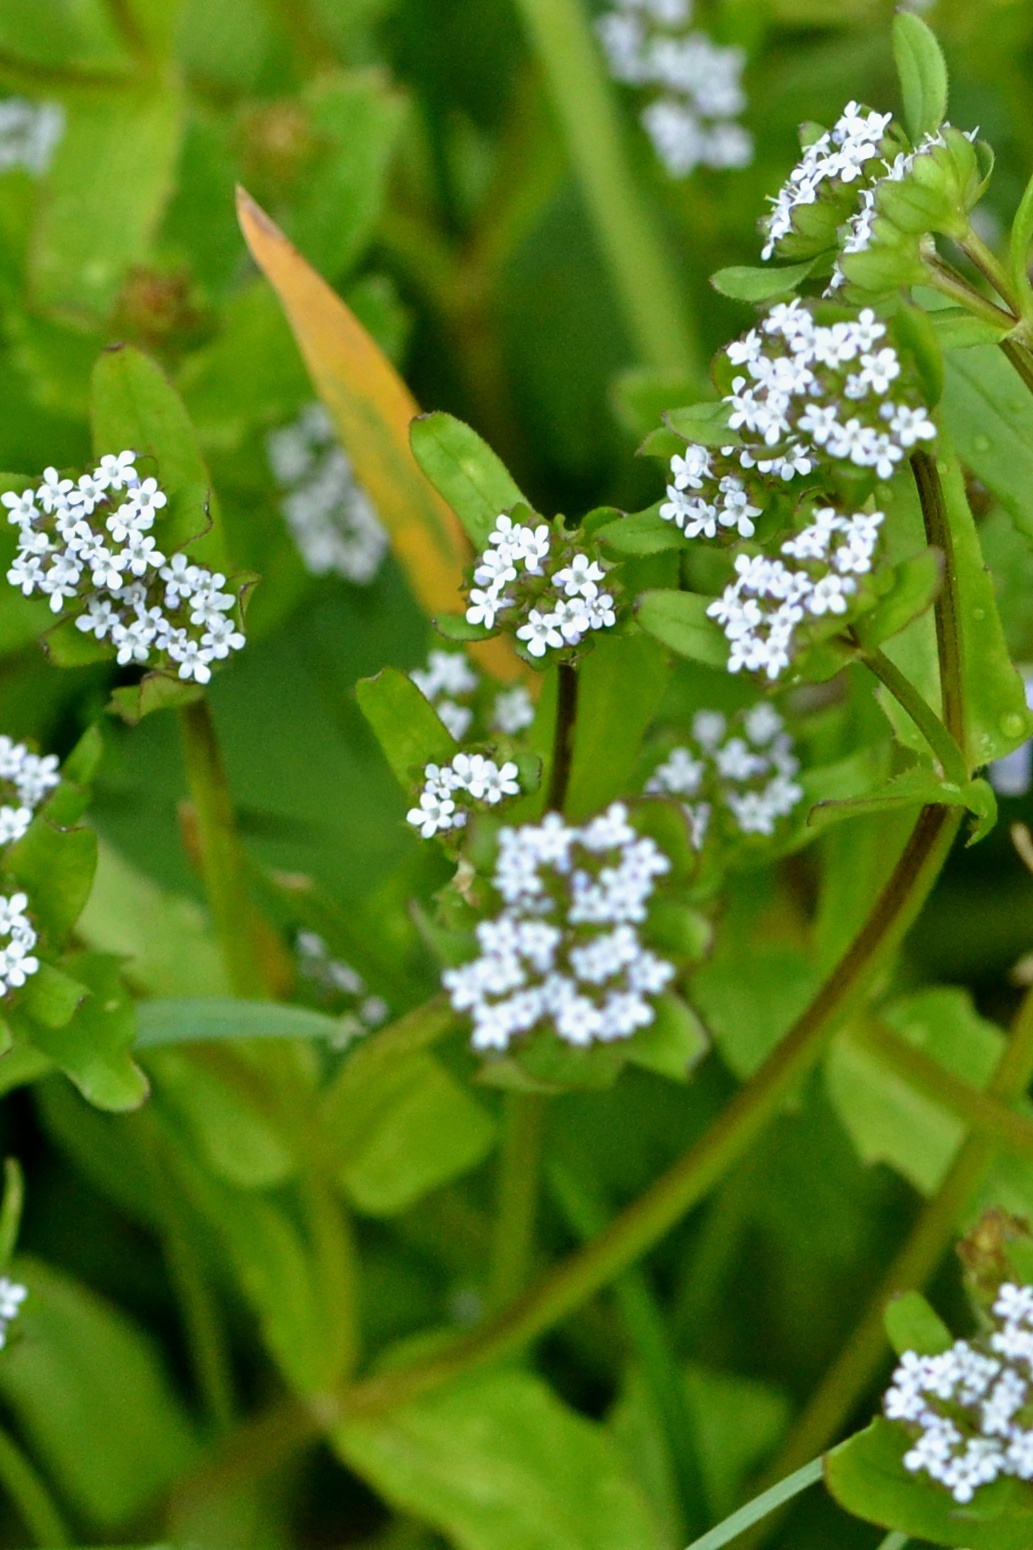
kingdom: Plantae
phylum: Tracheophyta
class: Magnoliopsida
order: Dipsacales
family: Caprifoliaceae
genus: Valerianella
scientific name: Valerianella locusta
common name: Common cornsalad
